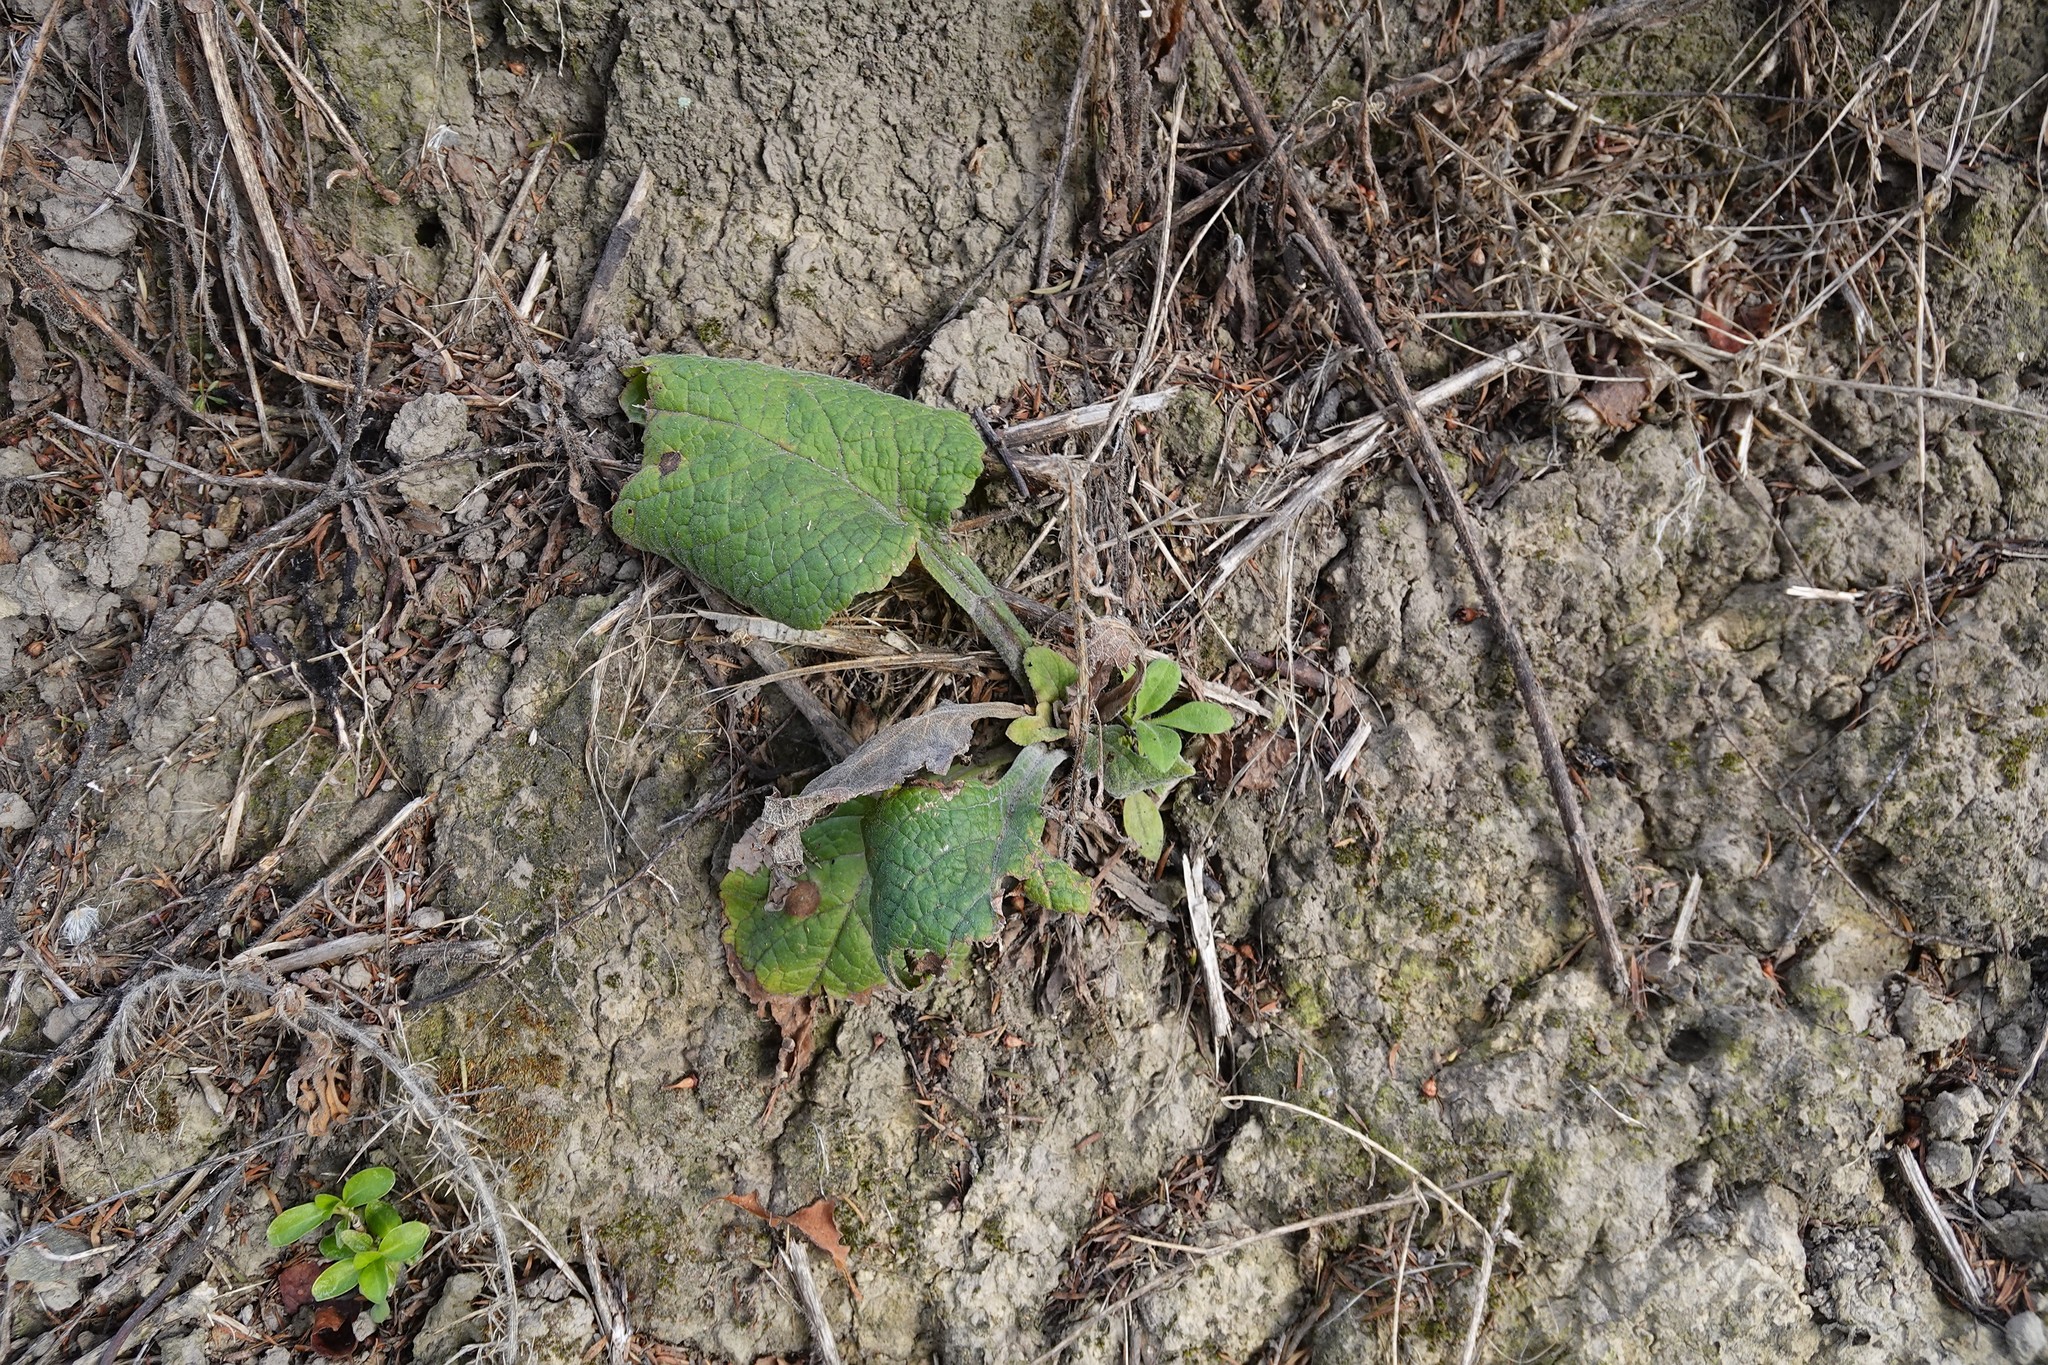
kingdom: Plantae
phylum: Tracheophyta
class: Magnoliopsida
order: Lamiales
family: Plantaginaceae
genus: Digitalis
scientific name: Digitalis purpurea
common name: Foxglove
